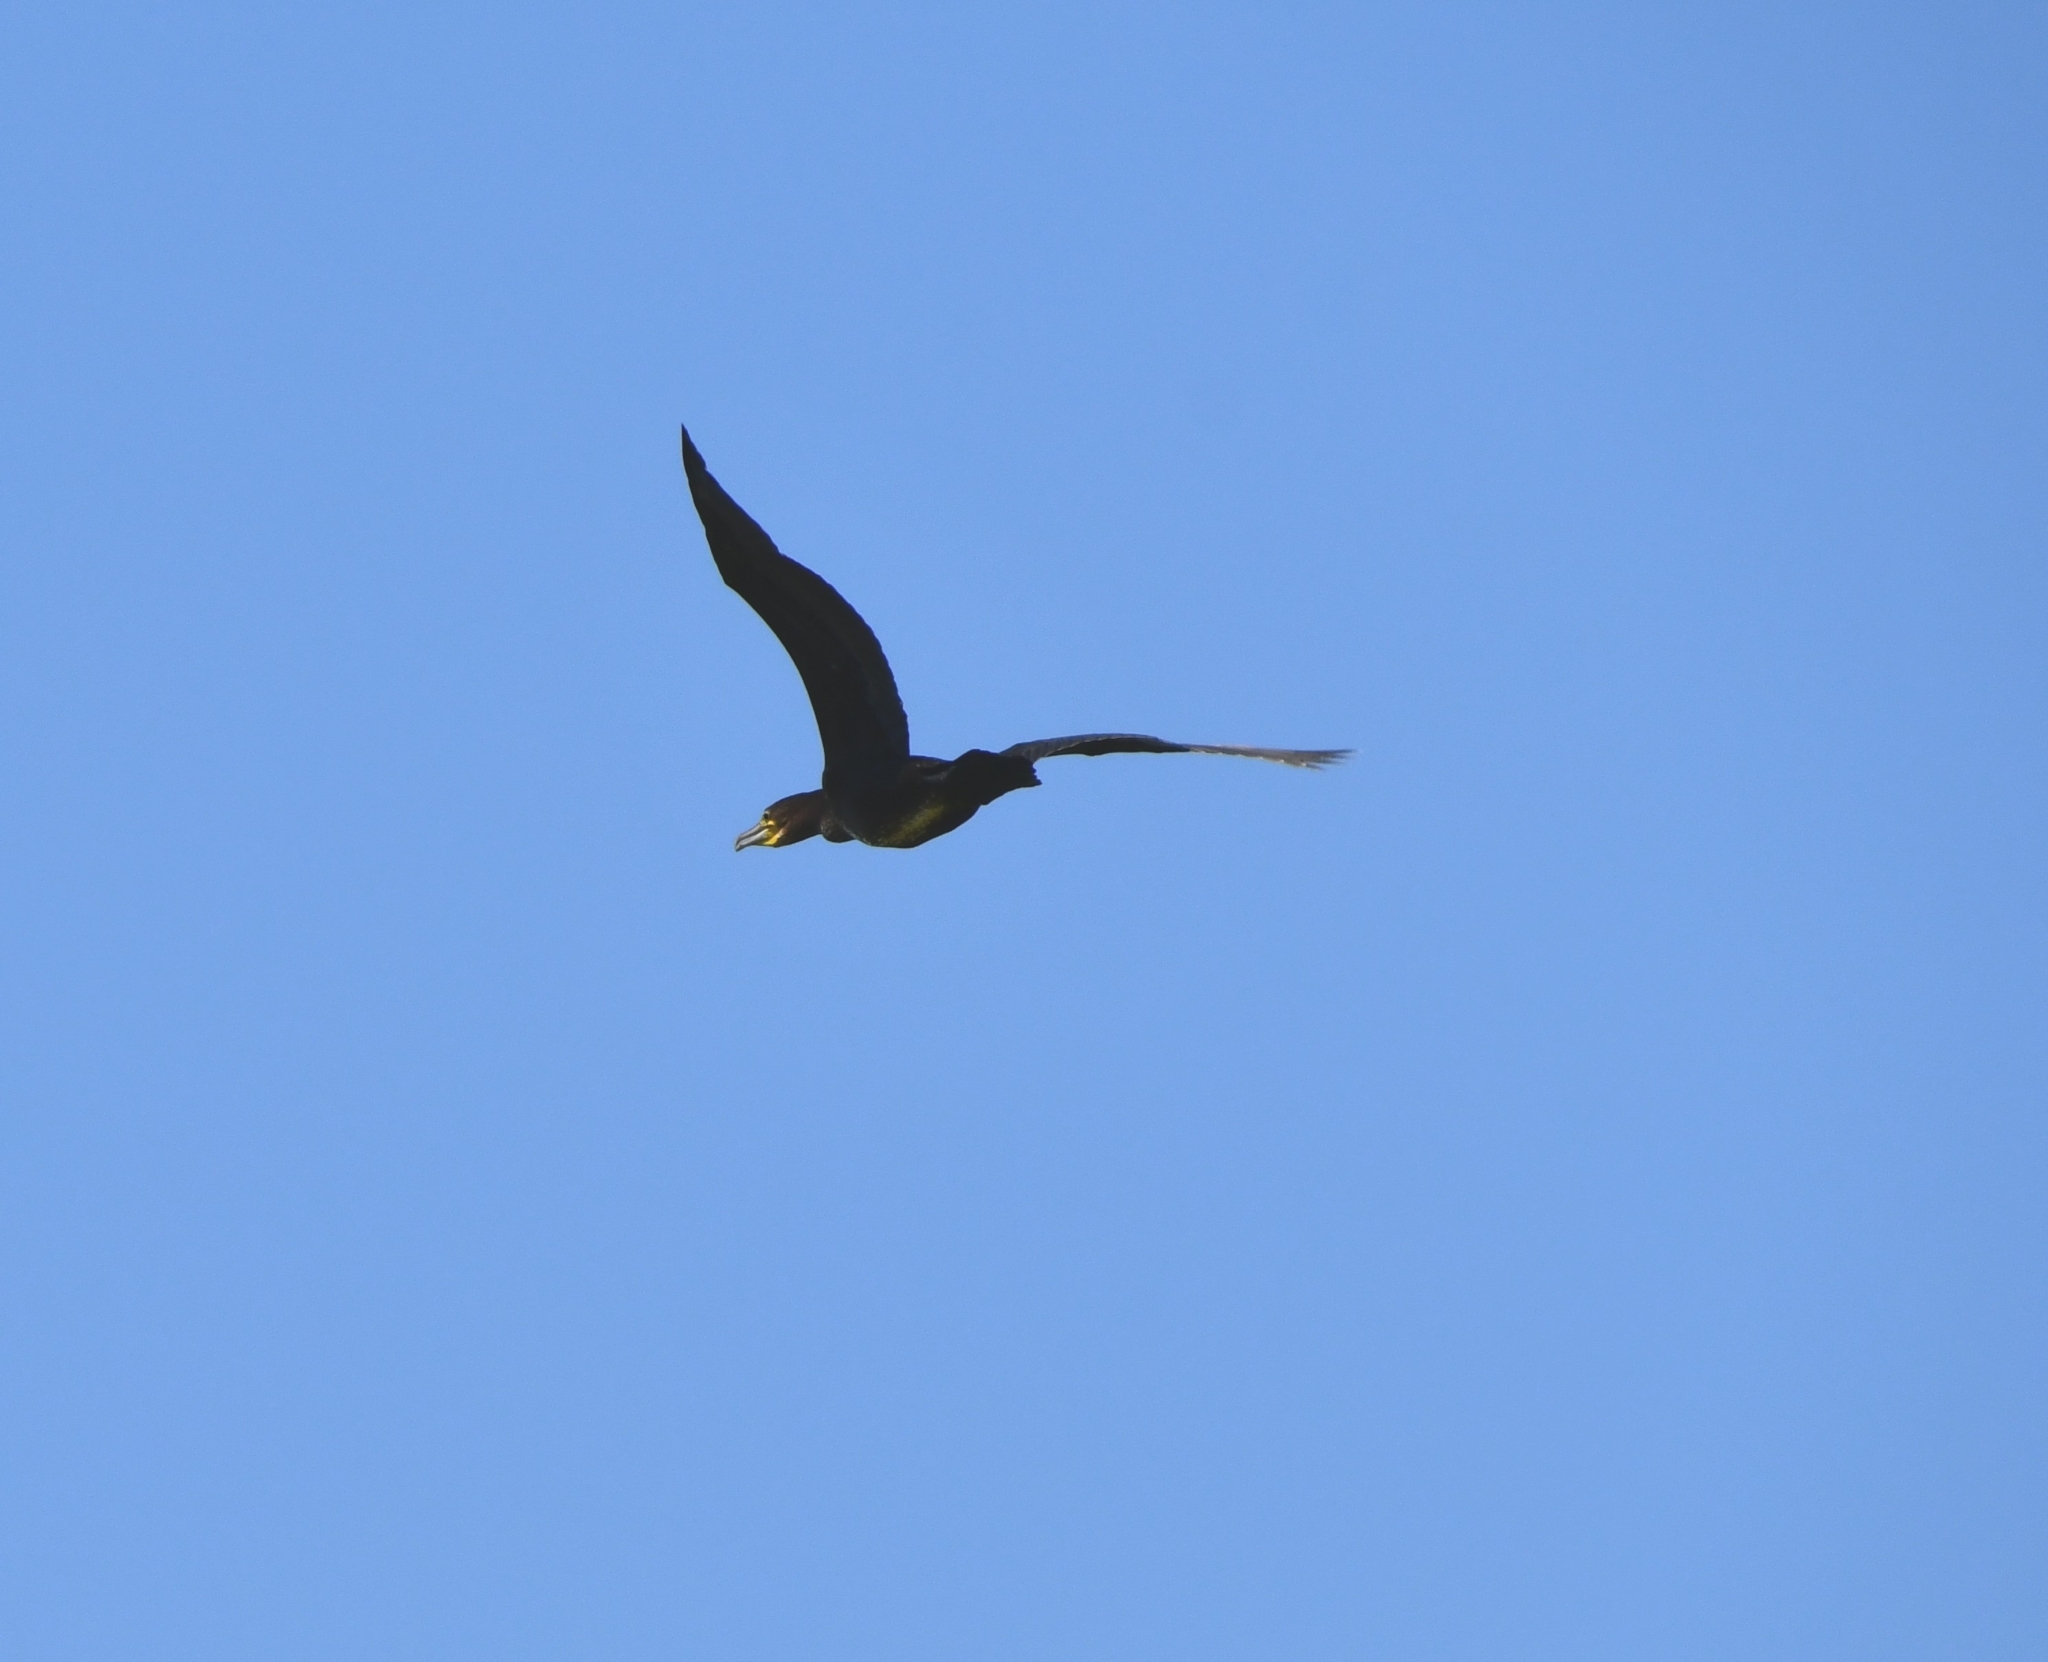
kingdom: Animalia
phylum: Chordata
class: Aves
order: Suliformes
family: Phalacrocoracidae
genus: Phalacrocorax
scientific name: Phalacrocorax carbo
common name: Great cormorant
